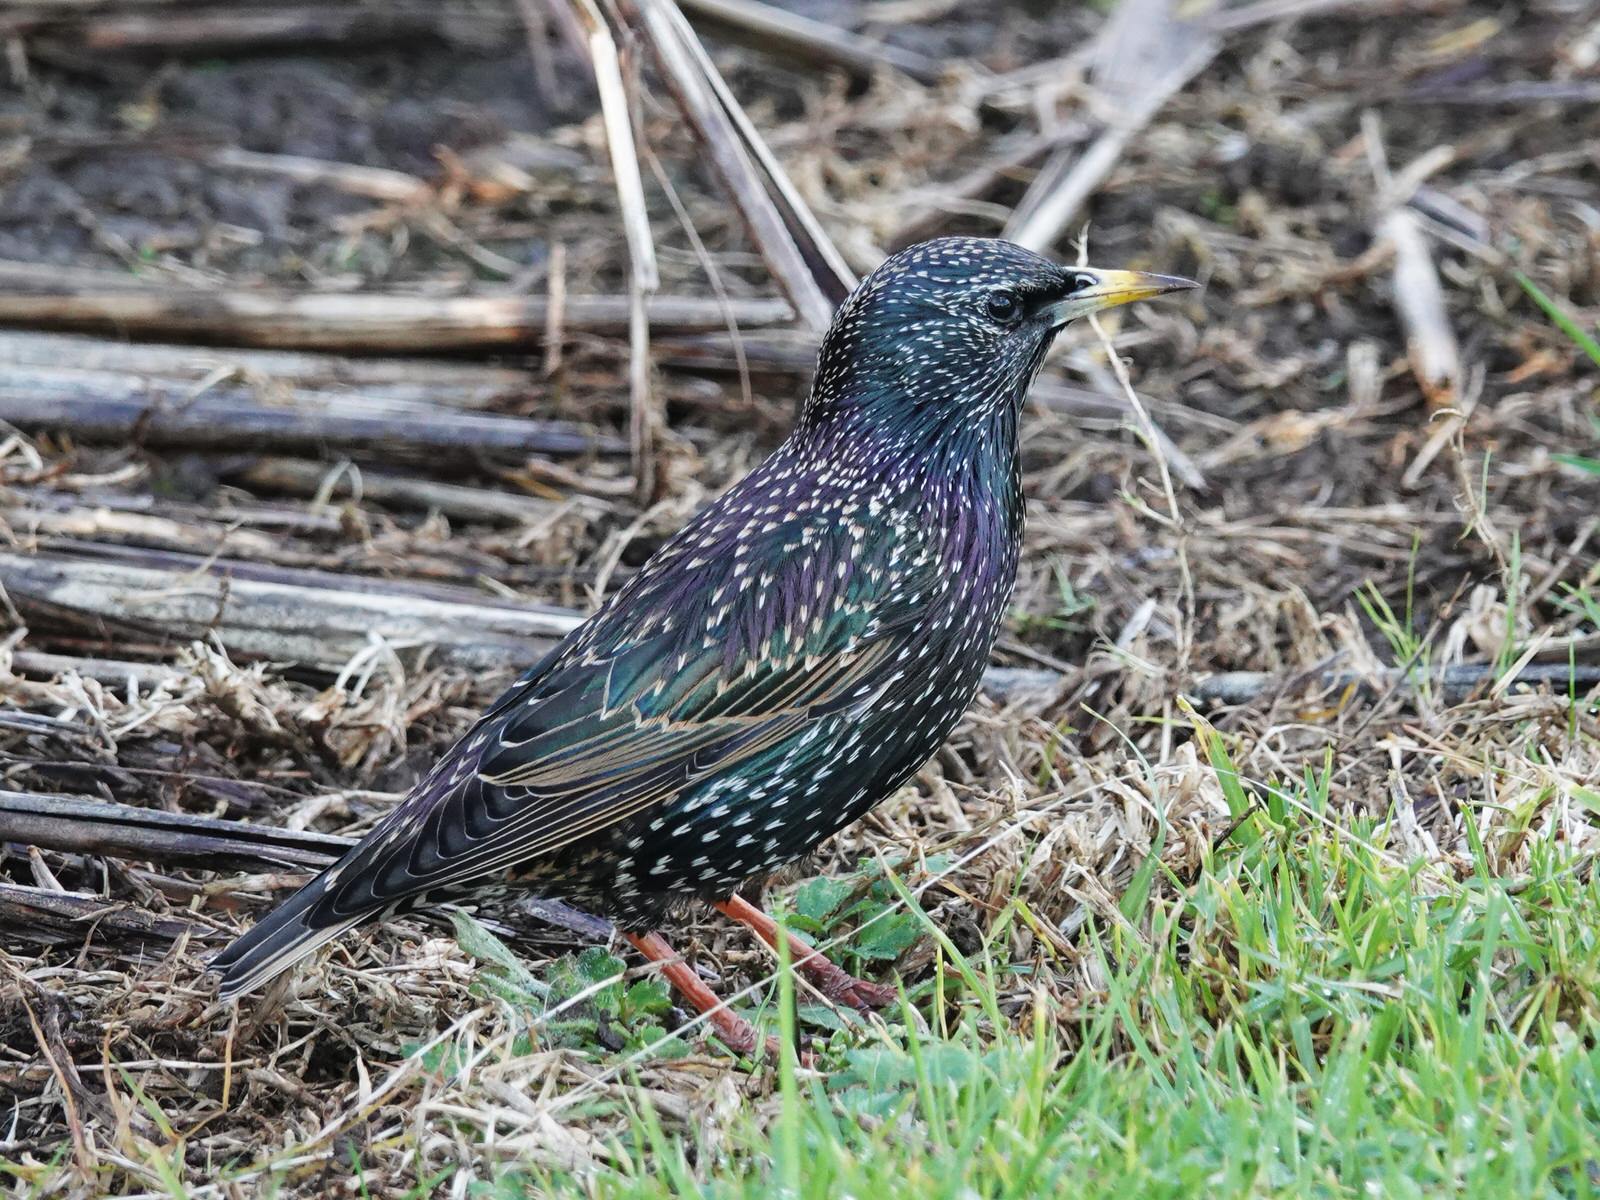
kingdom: Animalia
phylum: Chordata
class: Aves
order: Passeriformes
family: Sturnidae
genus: Sturnus
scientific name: Sturnus vulgaris
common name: Common starling
